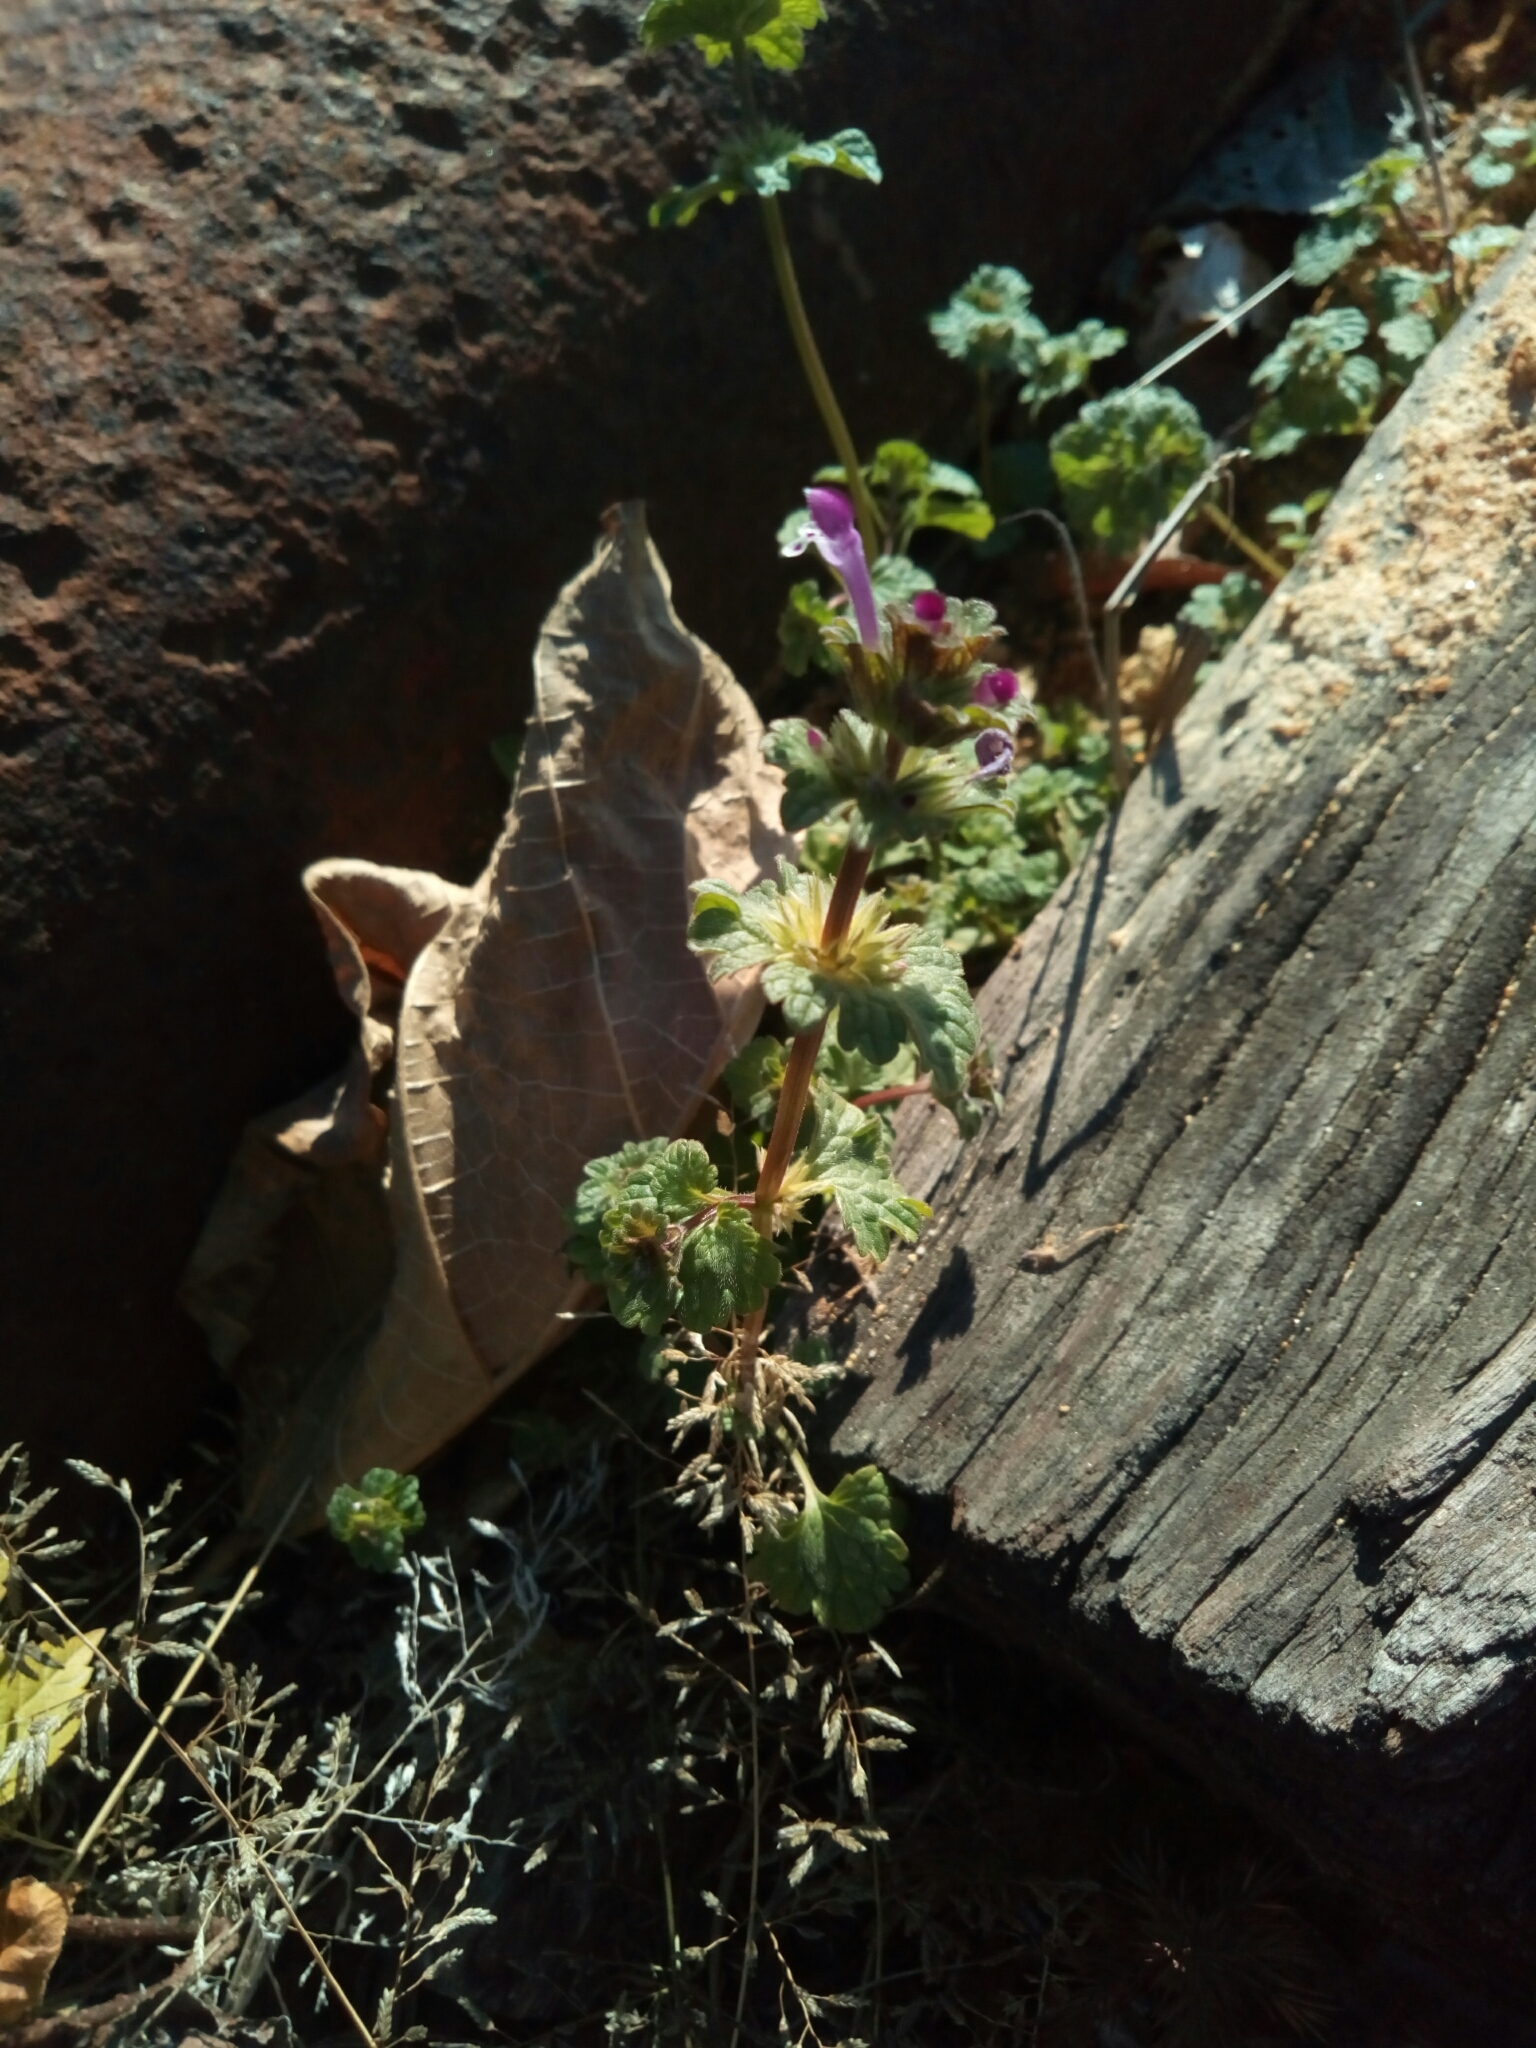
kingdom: Plantae
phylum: Tracheophyta
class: Magnoliopsida
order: Lamiales
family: Lamiaceae
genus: Lamium
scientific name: Lamium amplexicaule
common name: Henbit dead-nettle
